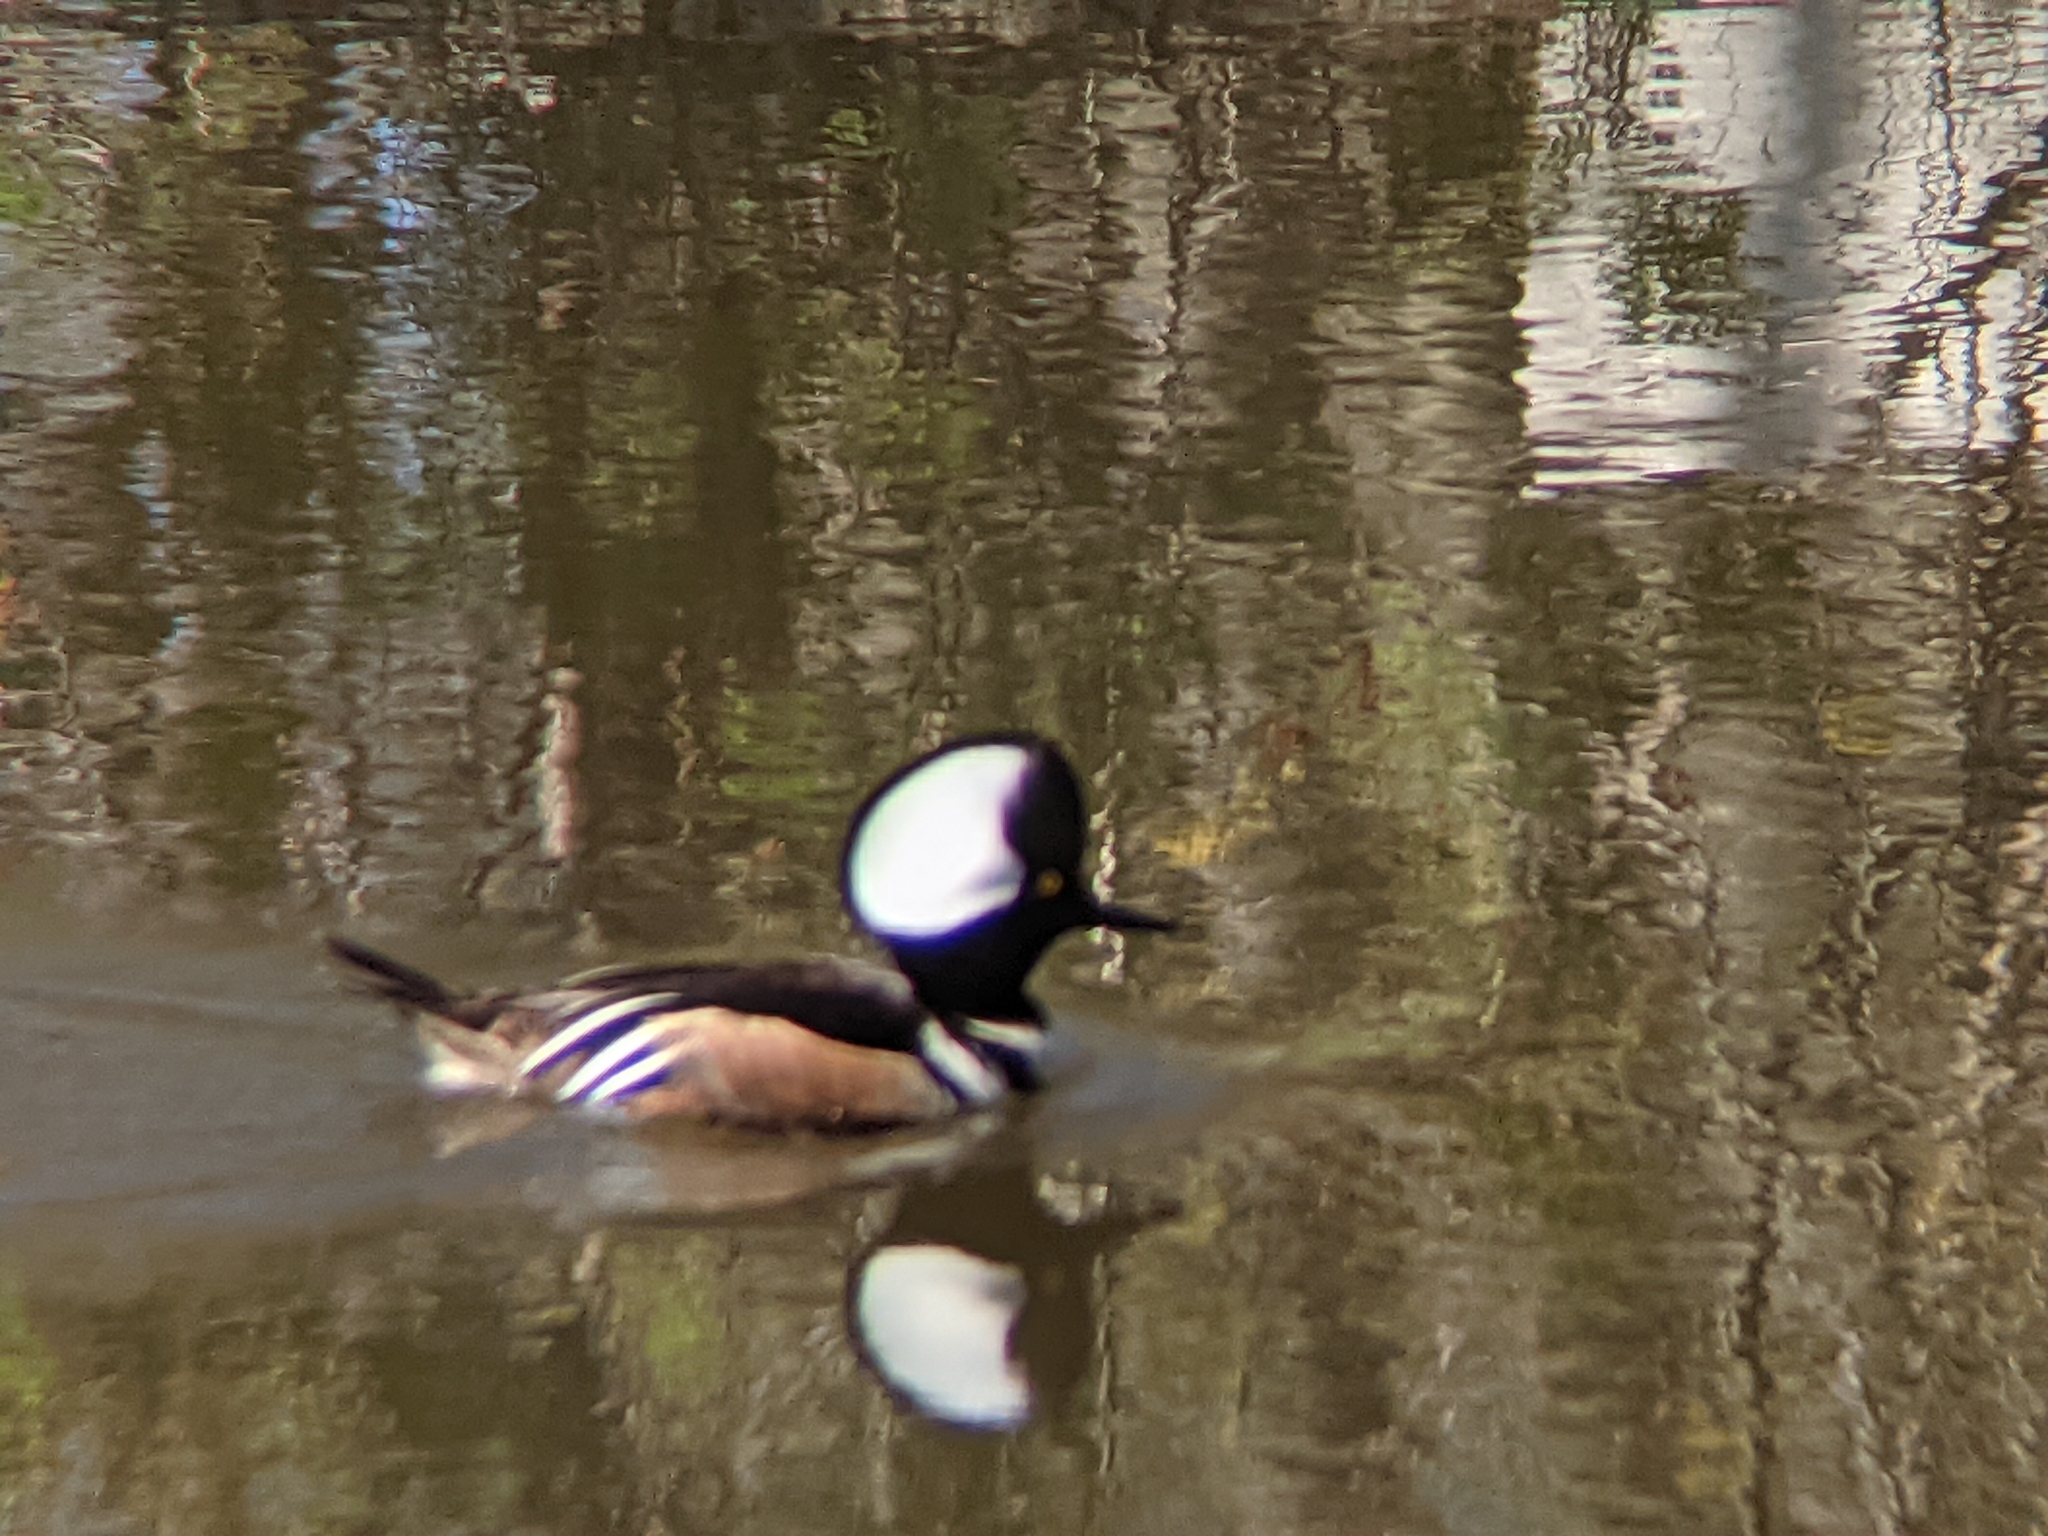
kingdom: Animalia
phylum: Chordata
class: Aves
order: Anseriformes
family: Anatidae
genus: Lophodytes
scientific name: Lophodytes cucullatus
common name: Hooded merganser
